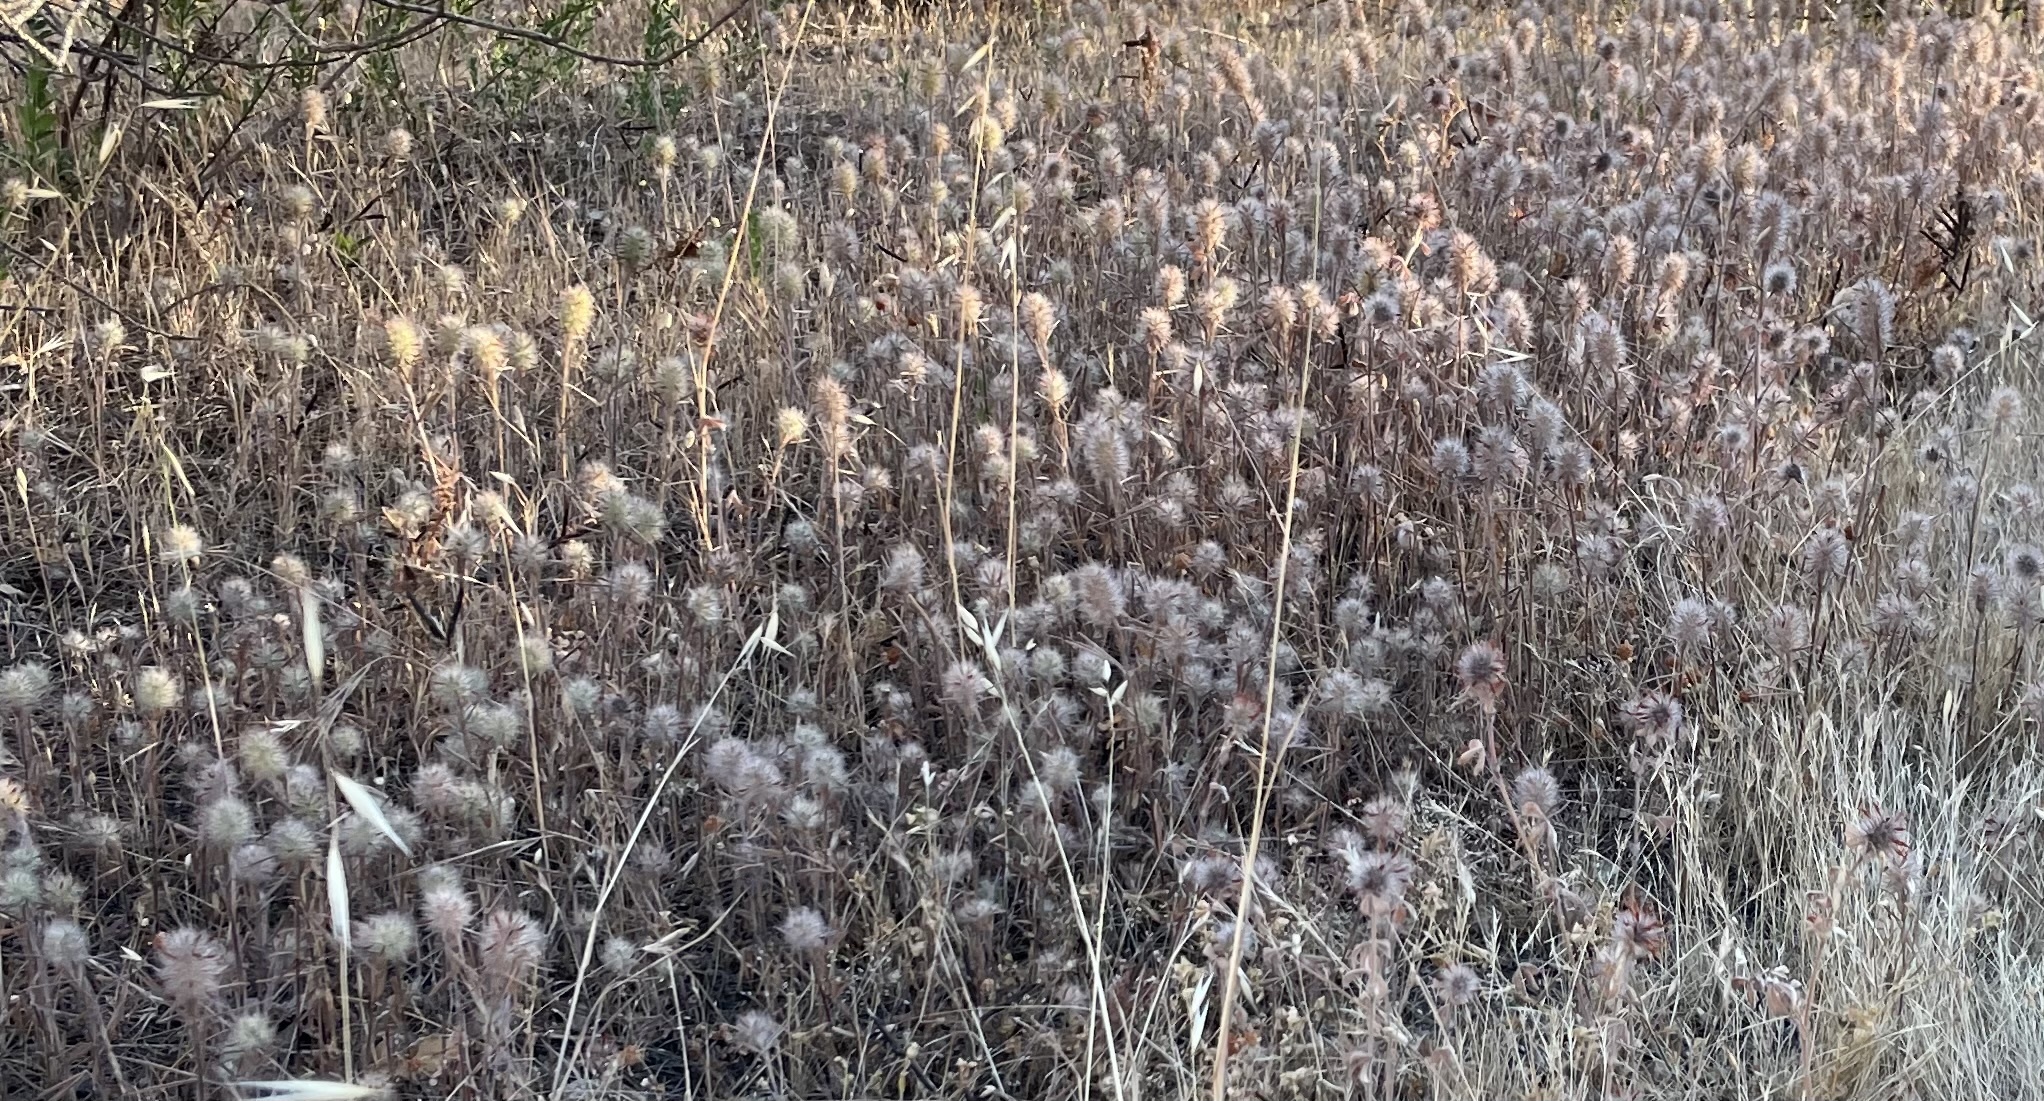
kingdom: Plantae
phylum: Tracheophyta
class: Magnoliopsida
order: Fabales
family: Fabaceae
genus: Trifolium
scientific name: Trifolium hirtum
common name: Rose clover
